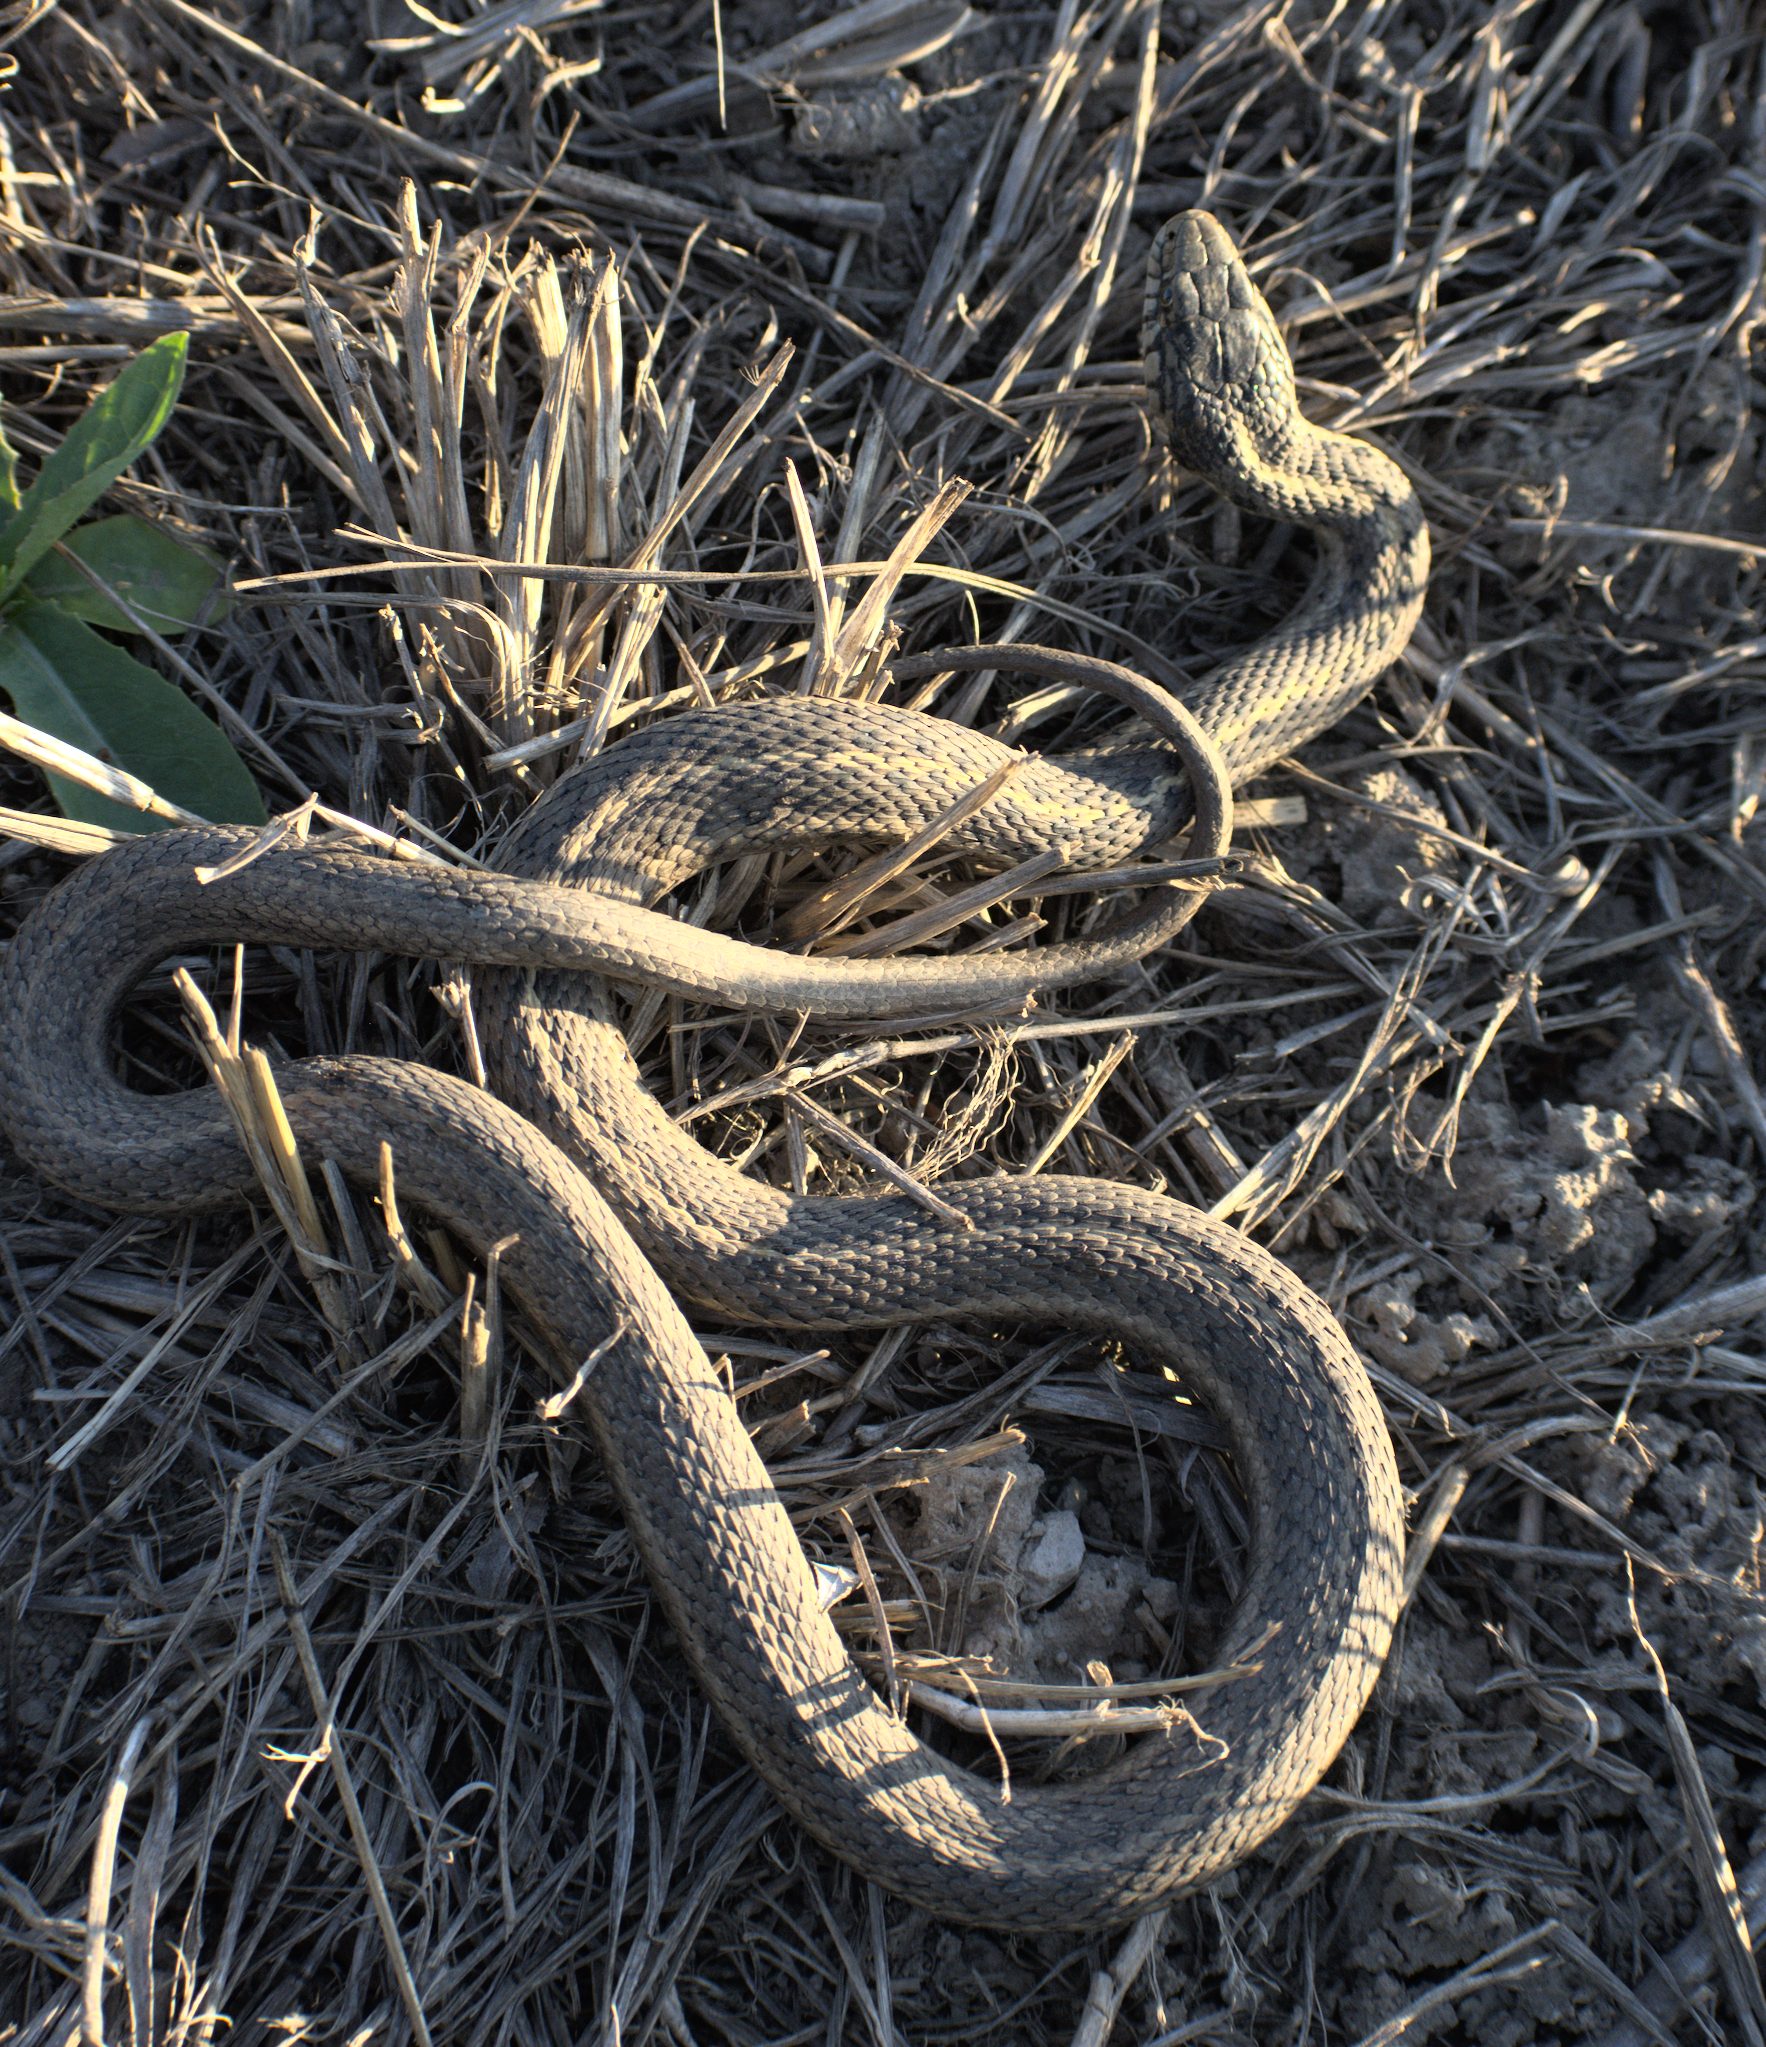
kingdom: Animalia
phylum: Chordata
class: Squamata
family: Colubridae
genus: Thamnophis
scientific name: Thamnophis elegans
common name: Western terrestrial garter snake
